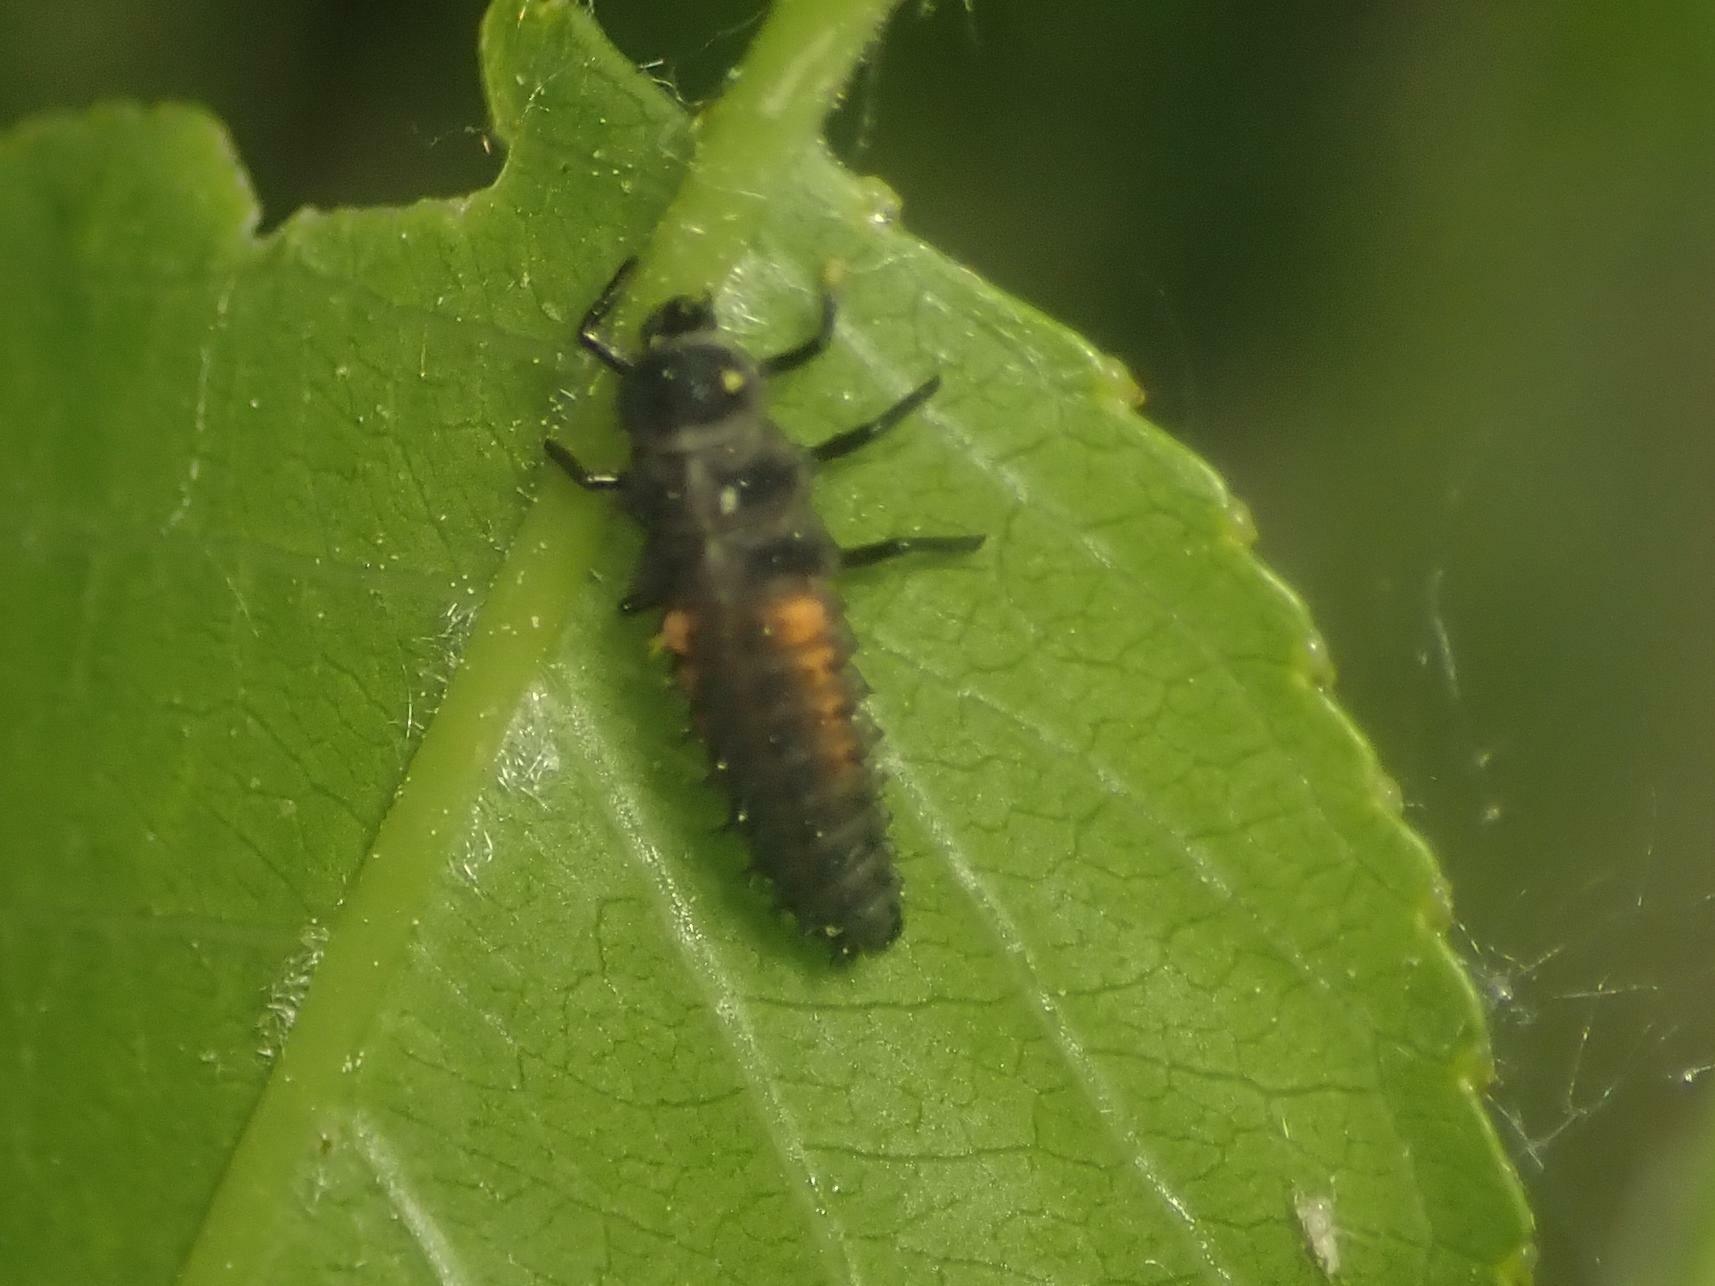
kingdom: Animalia
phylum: Arthropoda
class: Insecta
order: Coleoptera
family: Coccinellidae
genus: Harmonia
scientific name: Harmonia axyridis
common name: Harlequin ladybird
